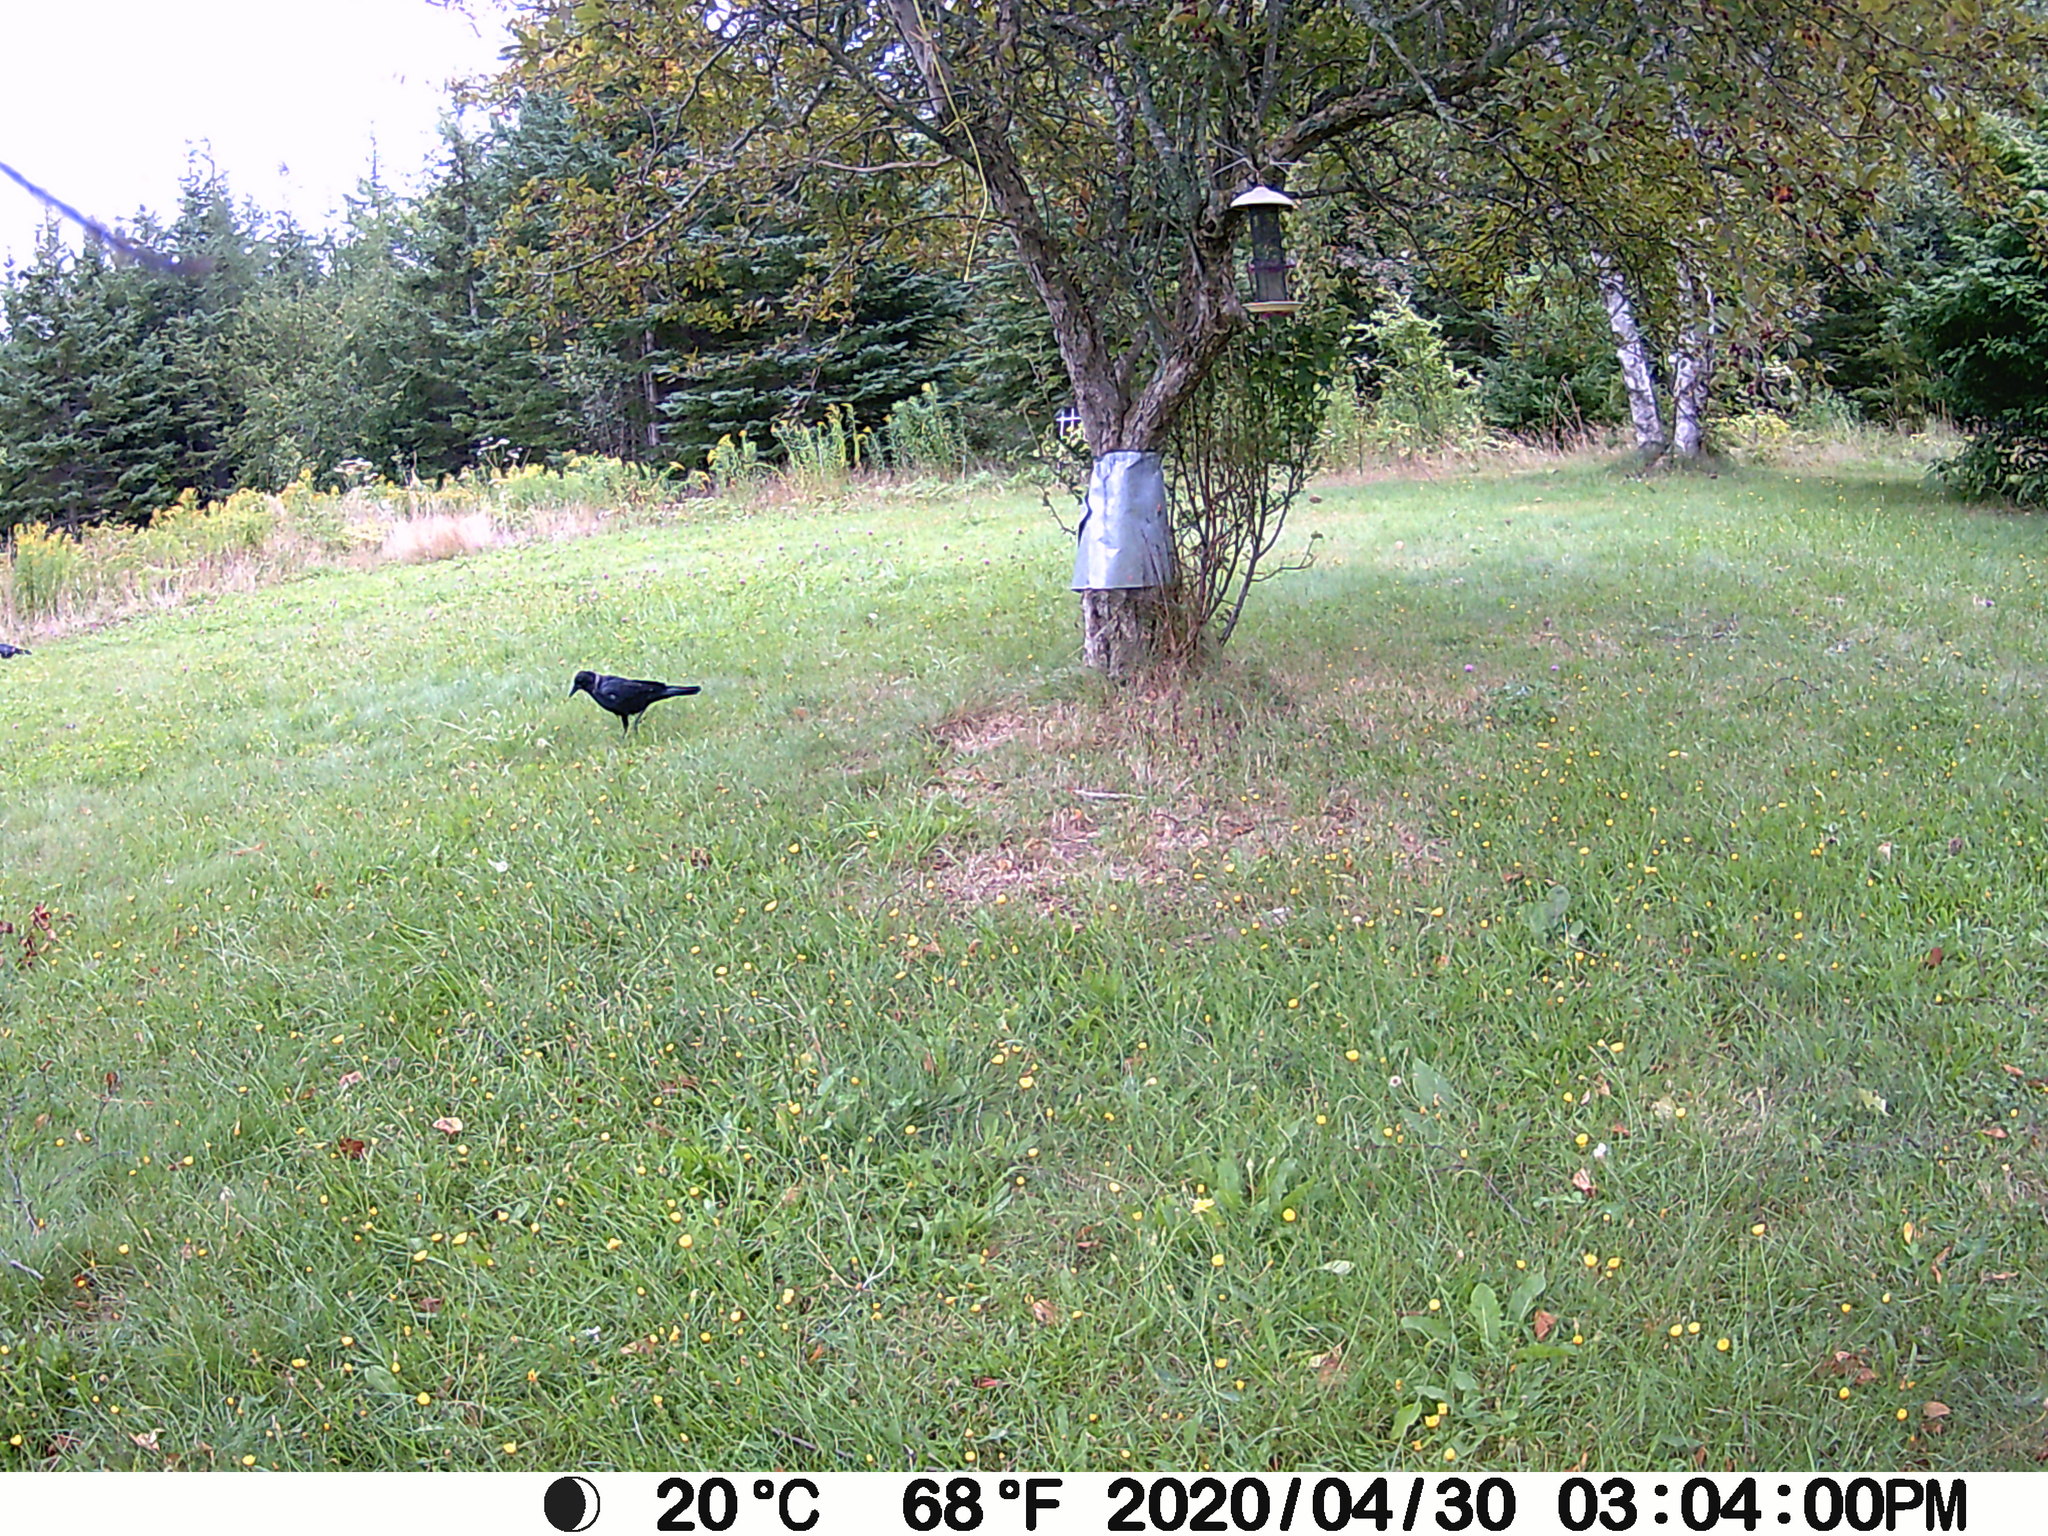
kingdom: Animalia
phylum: Chordata
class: Aves
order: Passeriformes
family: Corvidae
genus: Corvus
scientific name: Corvus brachyrhynchos
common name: American crow
